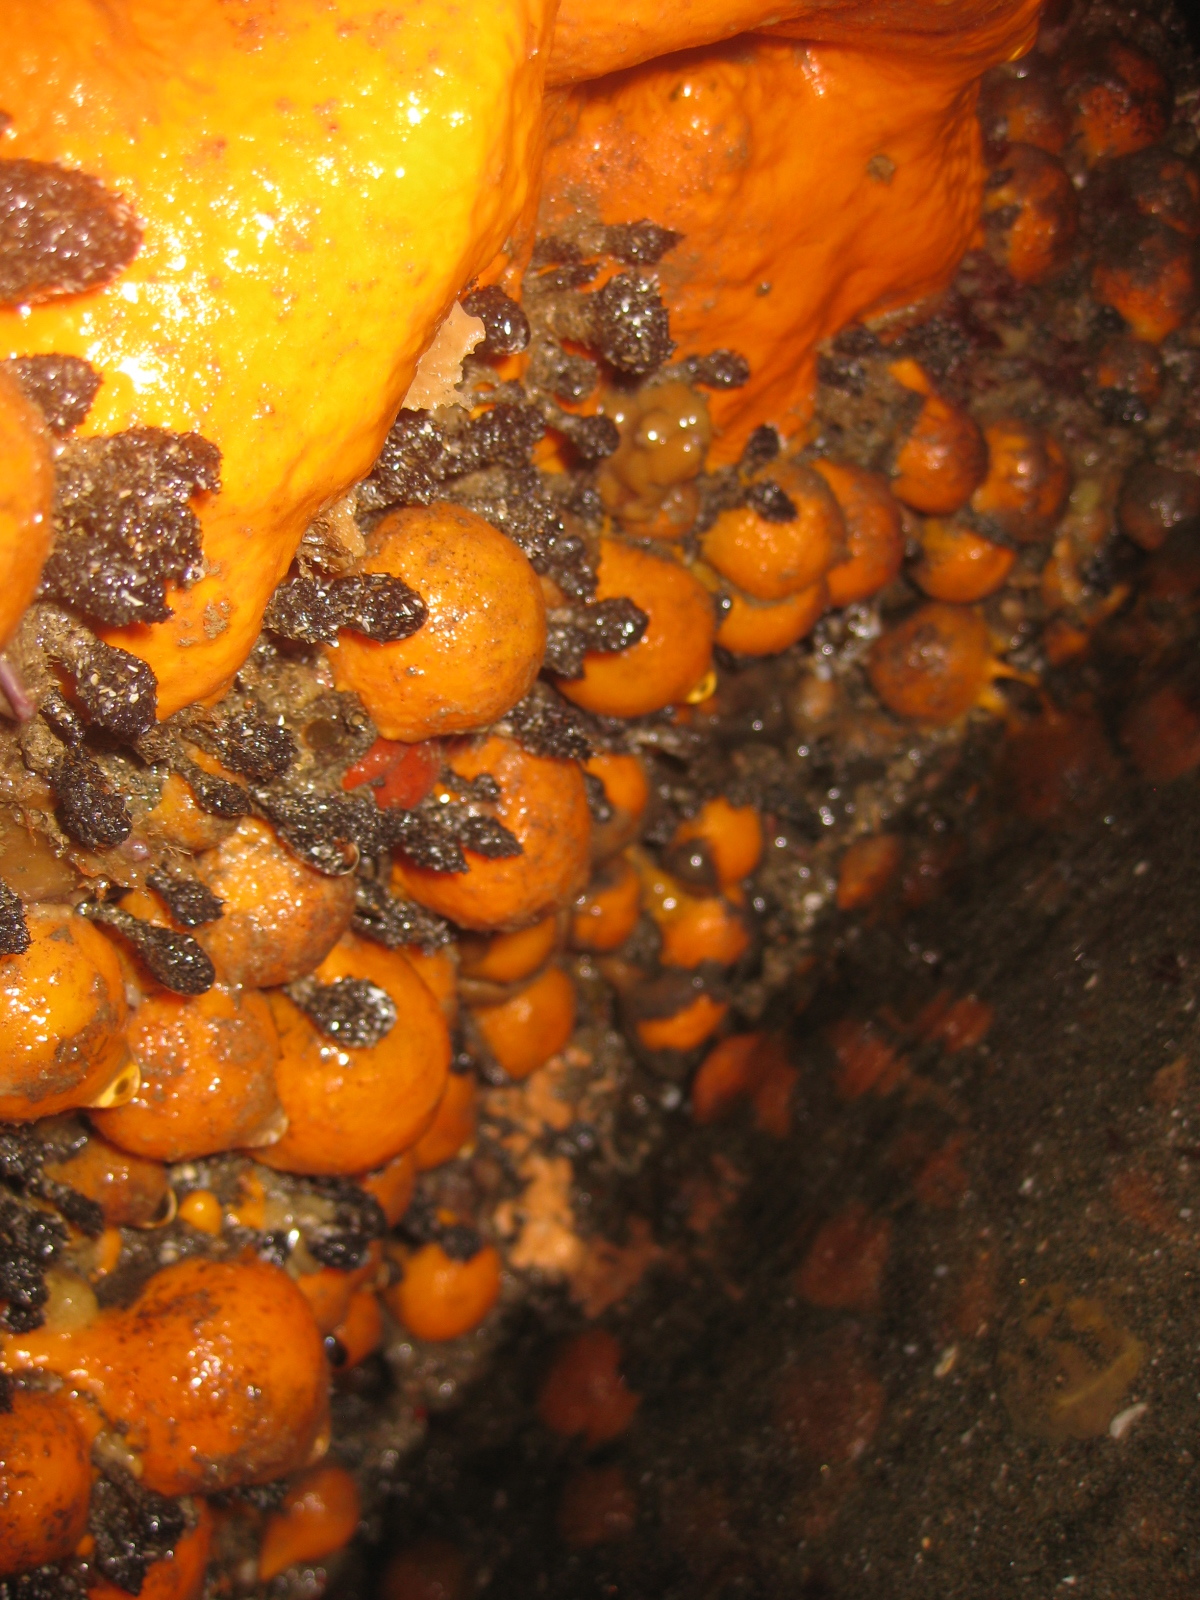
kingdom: Animalia
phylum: Porifera
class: Demospongiae
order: Tethyida
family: Tethyidae
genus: Tethya
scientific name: Tethya burtoni
